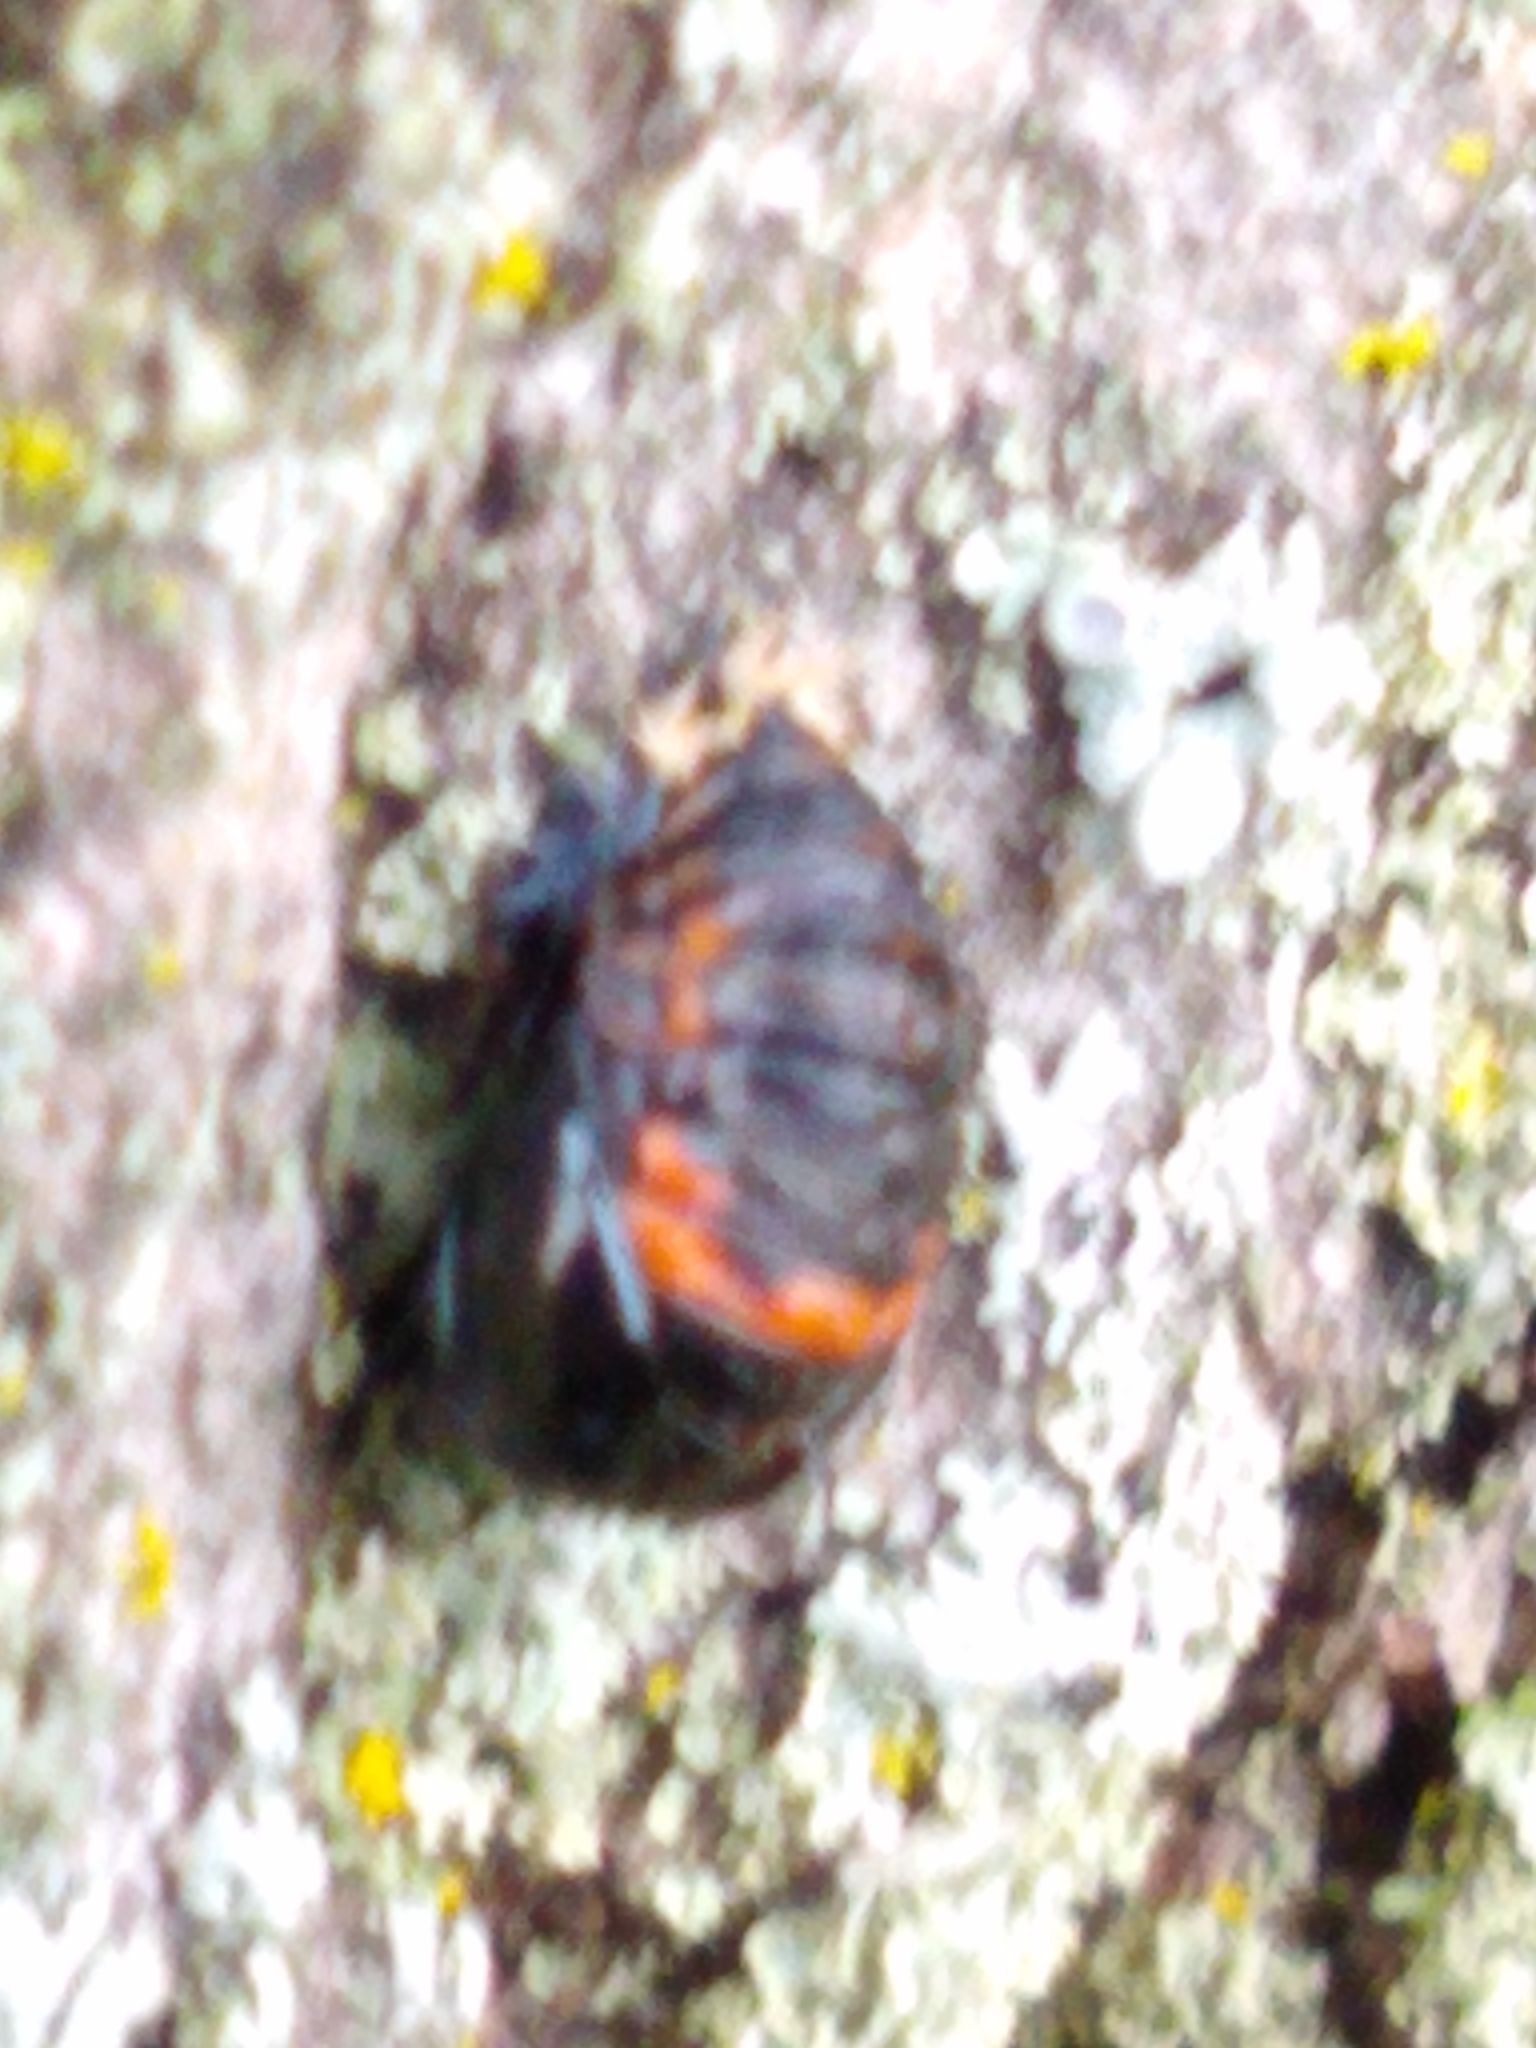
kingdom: Animalia
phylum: Arthropoda
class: Insecta
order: Coleoptera
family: Coccinellidae
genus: Harmonia
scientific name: Harmonia axyridis
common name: Harlequin ladybird
